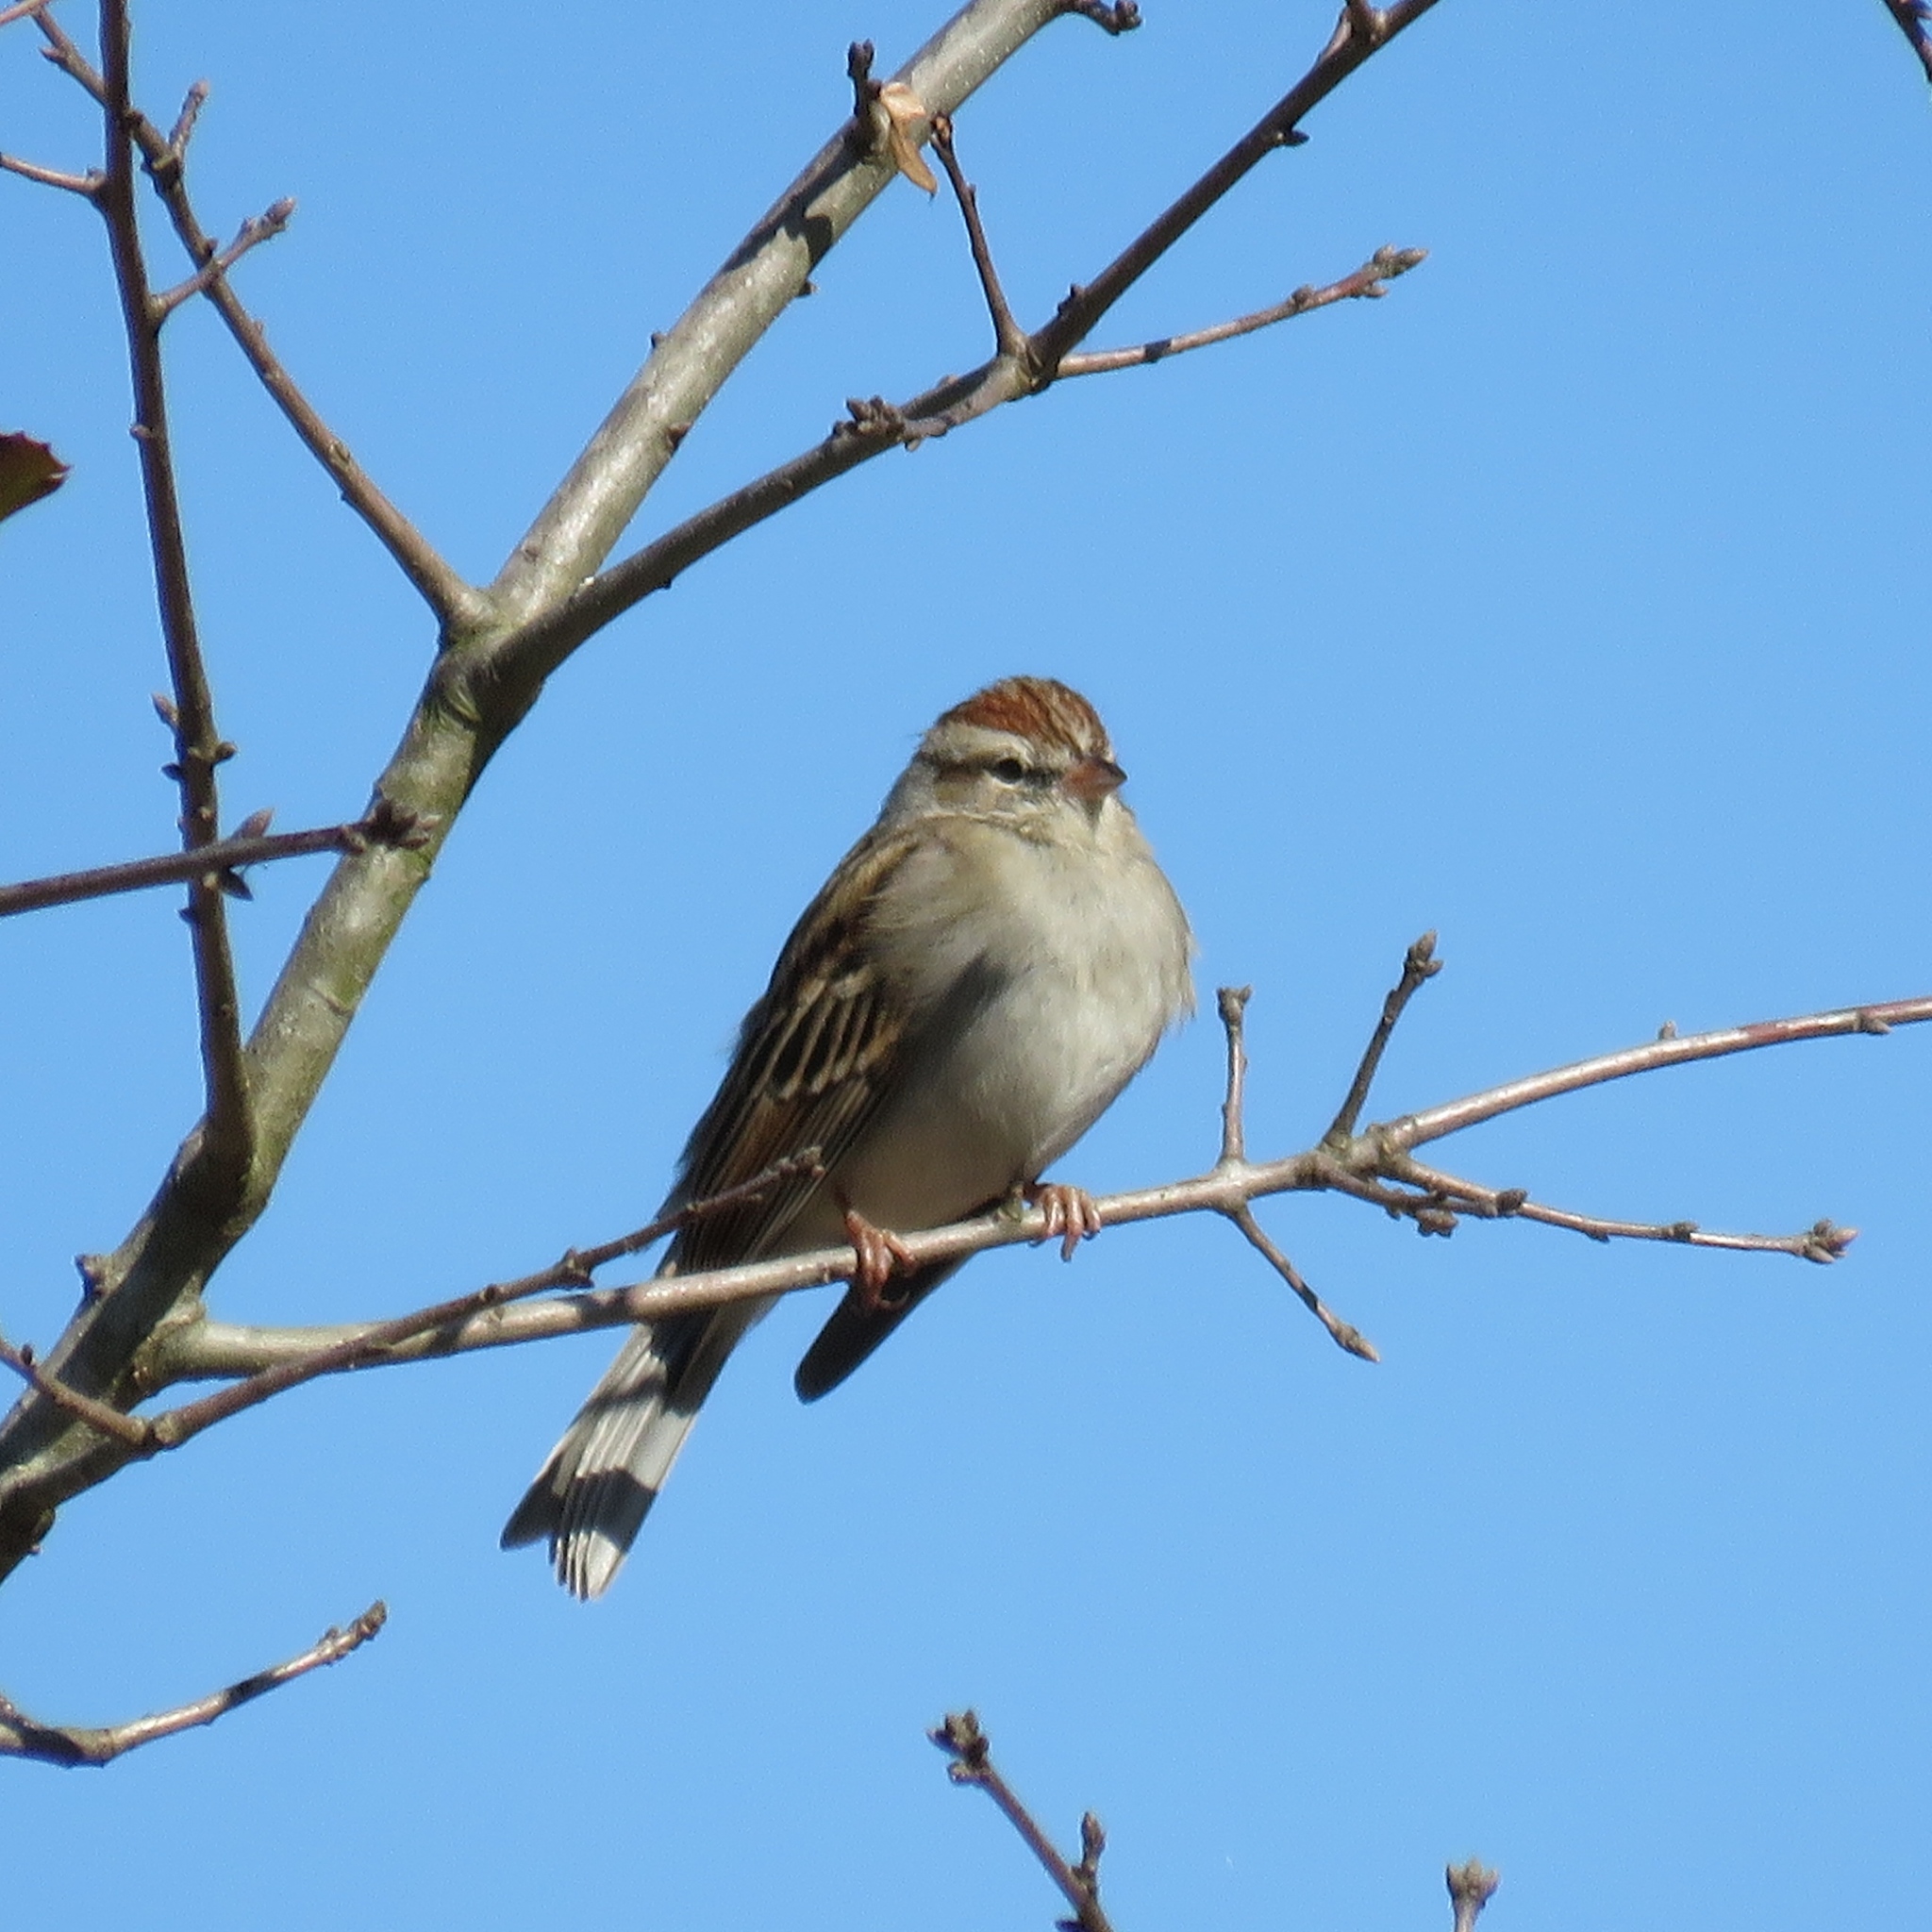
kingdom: Animalia
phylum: Chordata
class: Aves
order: Passeriformes
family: Passerellidae
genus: Spizella
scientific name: Spizella passerina
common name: Chipping sparrow
